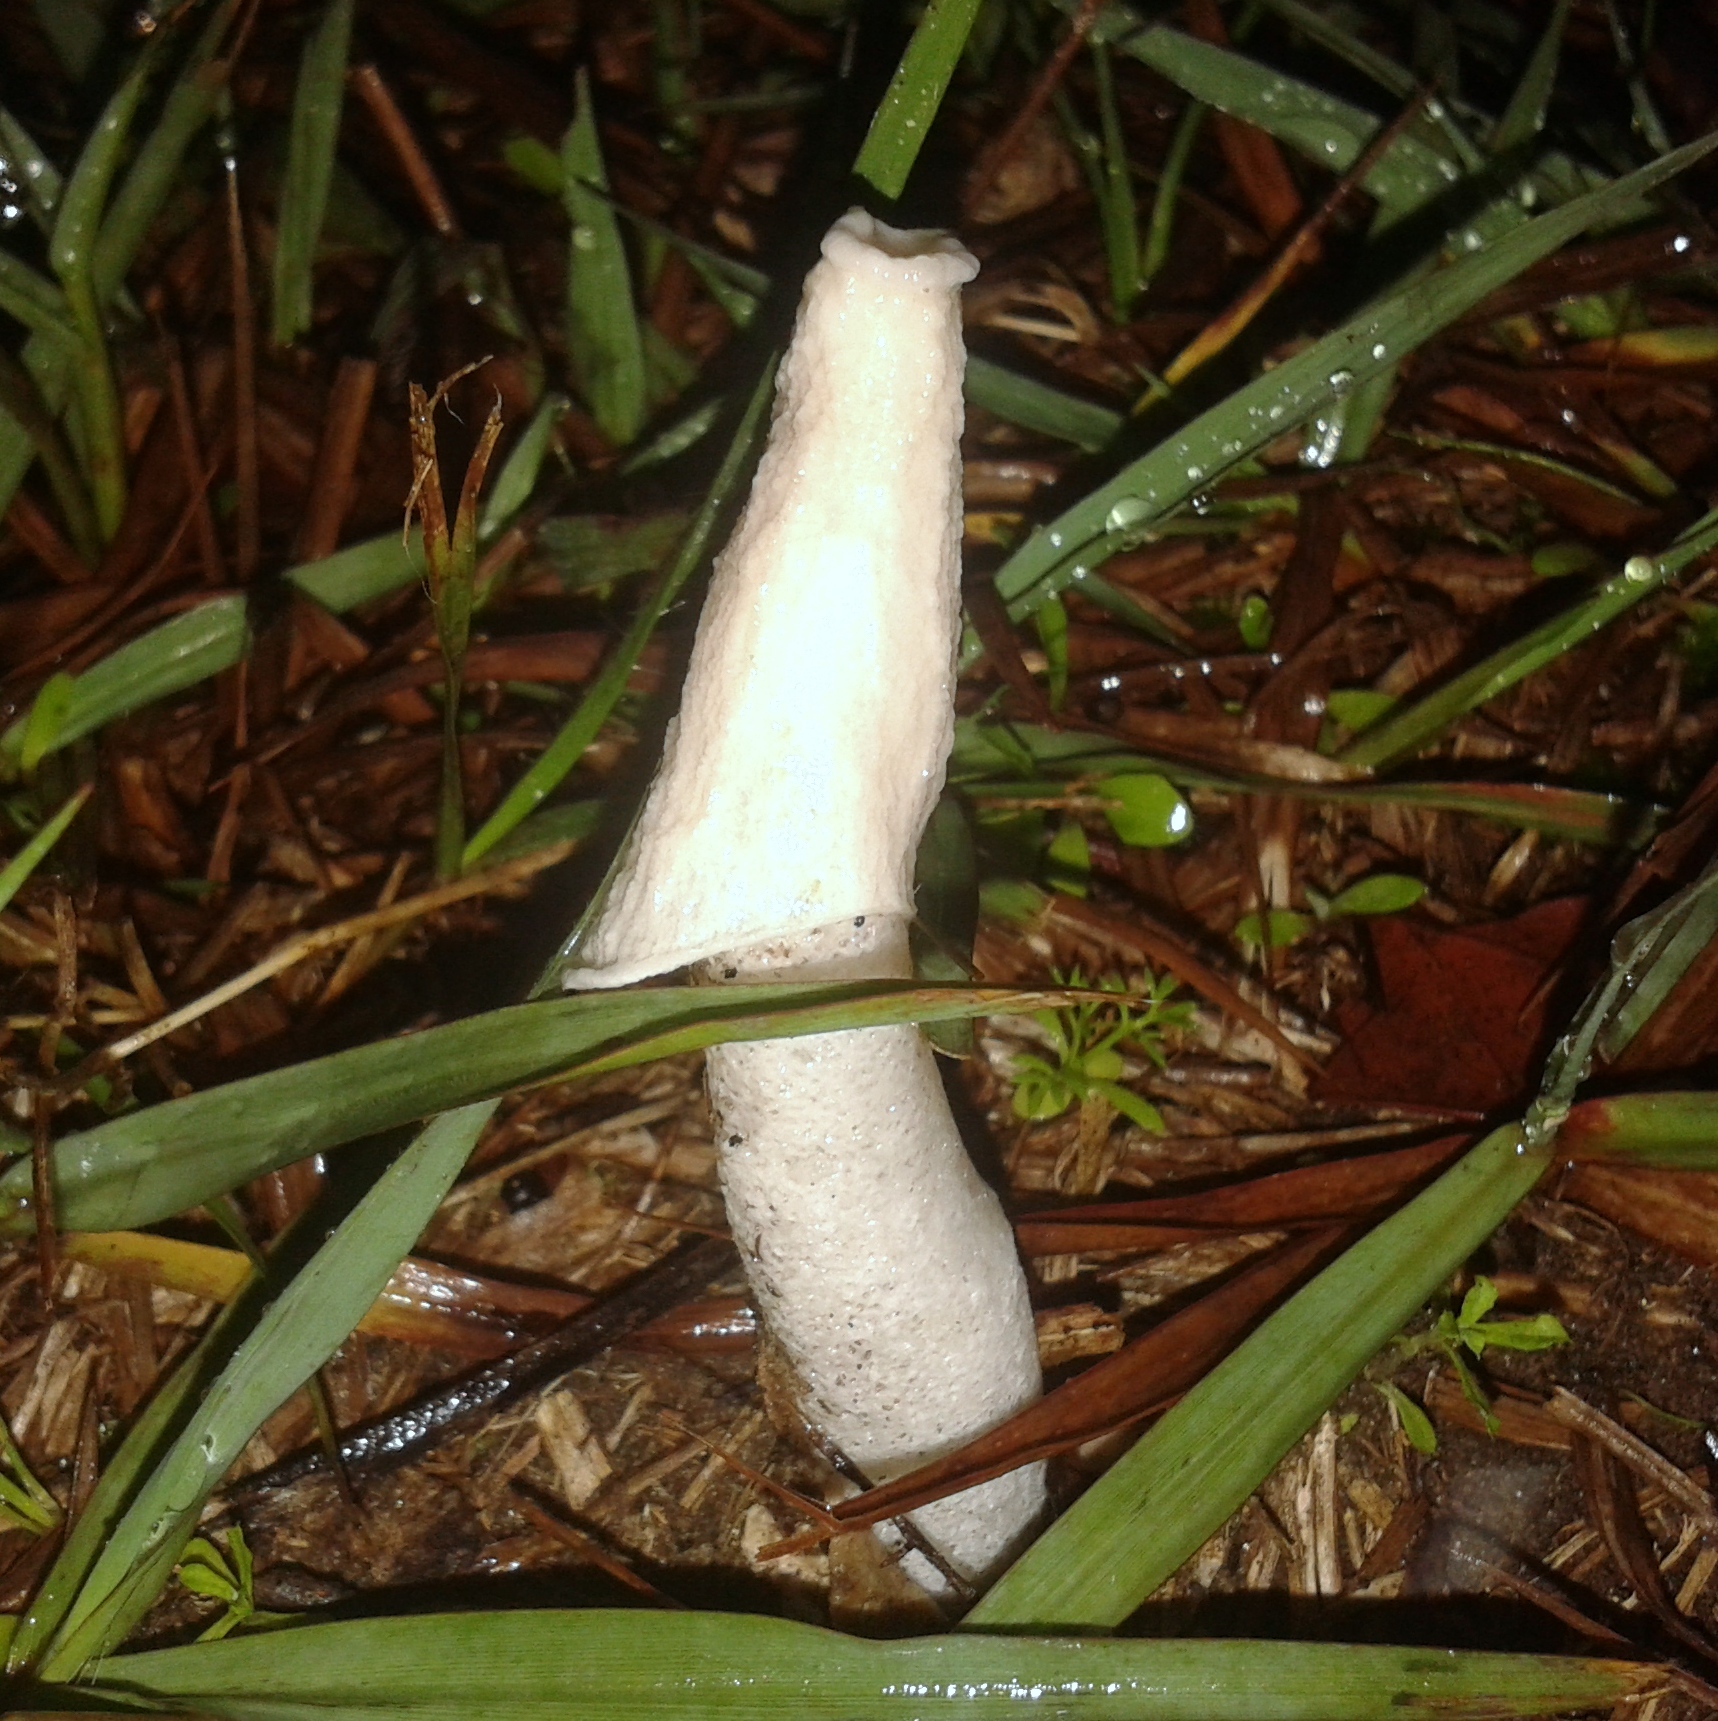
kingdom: Fungi
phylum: Basidiomycota
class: Agaricomycetes
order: Phallales
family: Phallaceae
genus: Phallus
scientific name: Phallus granulosodenticulatus bis
